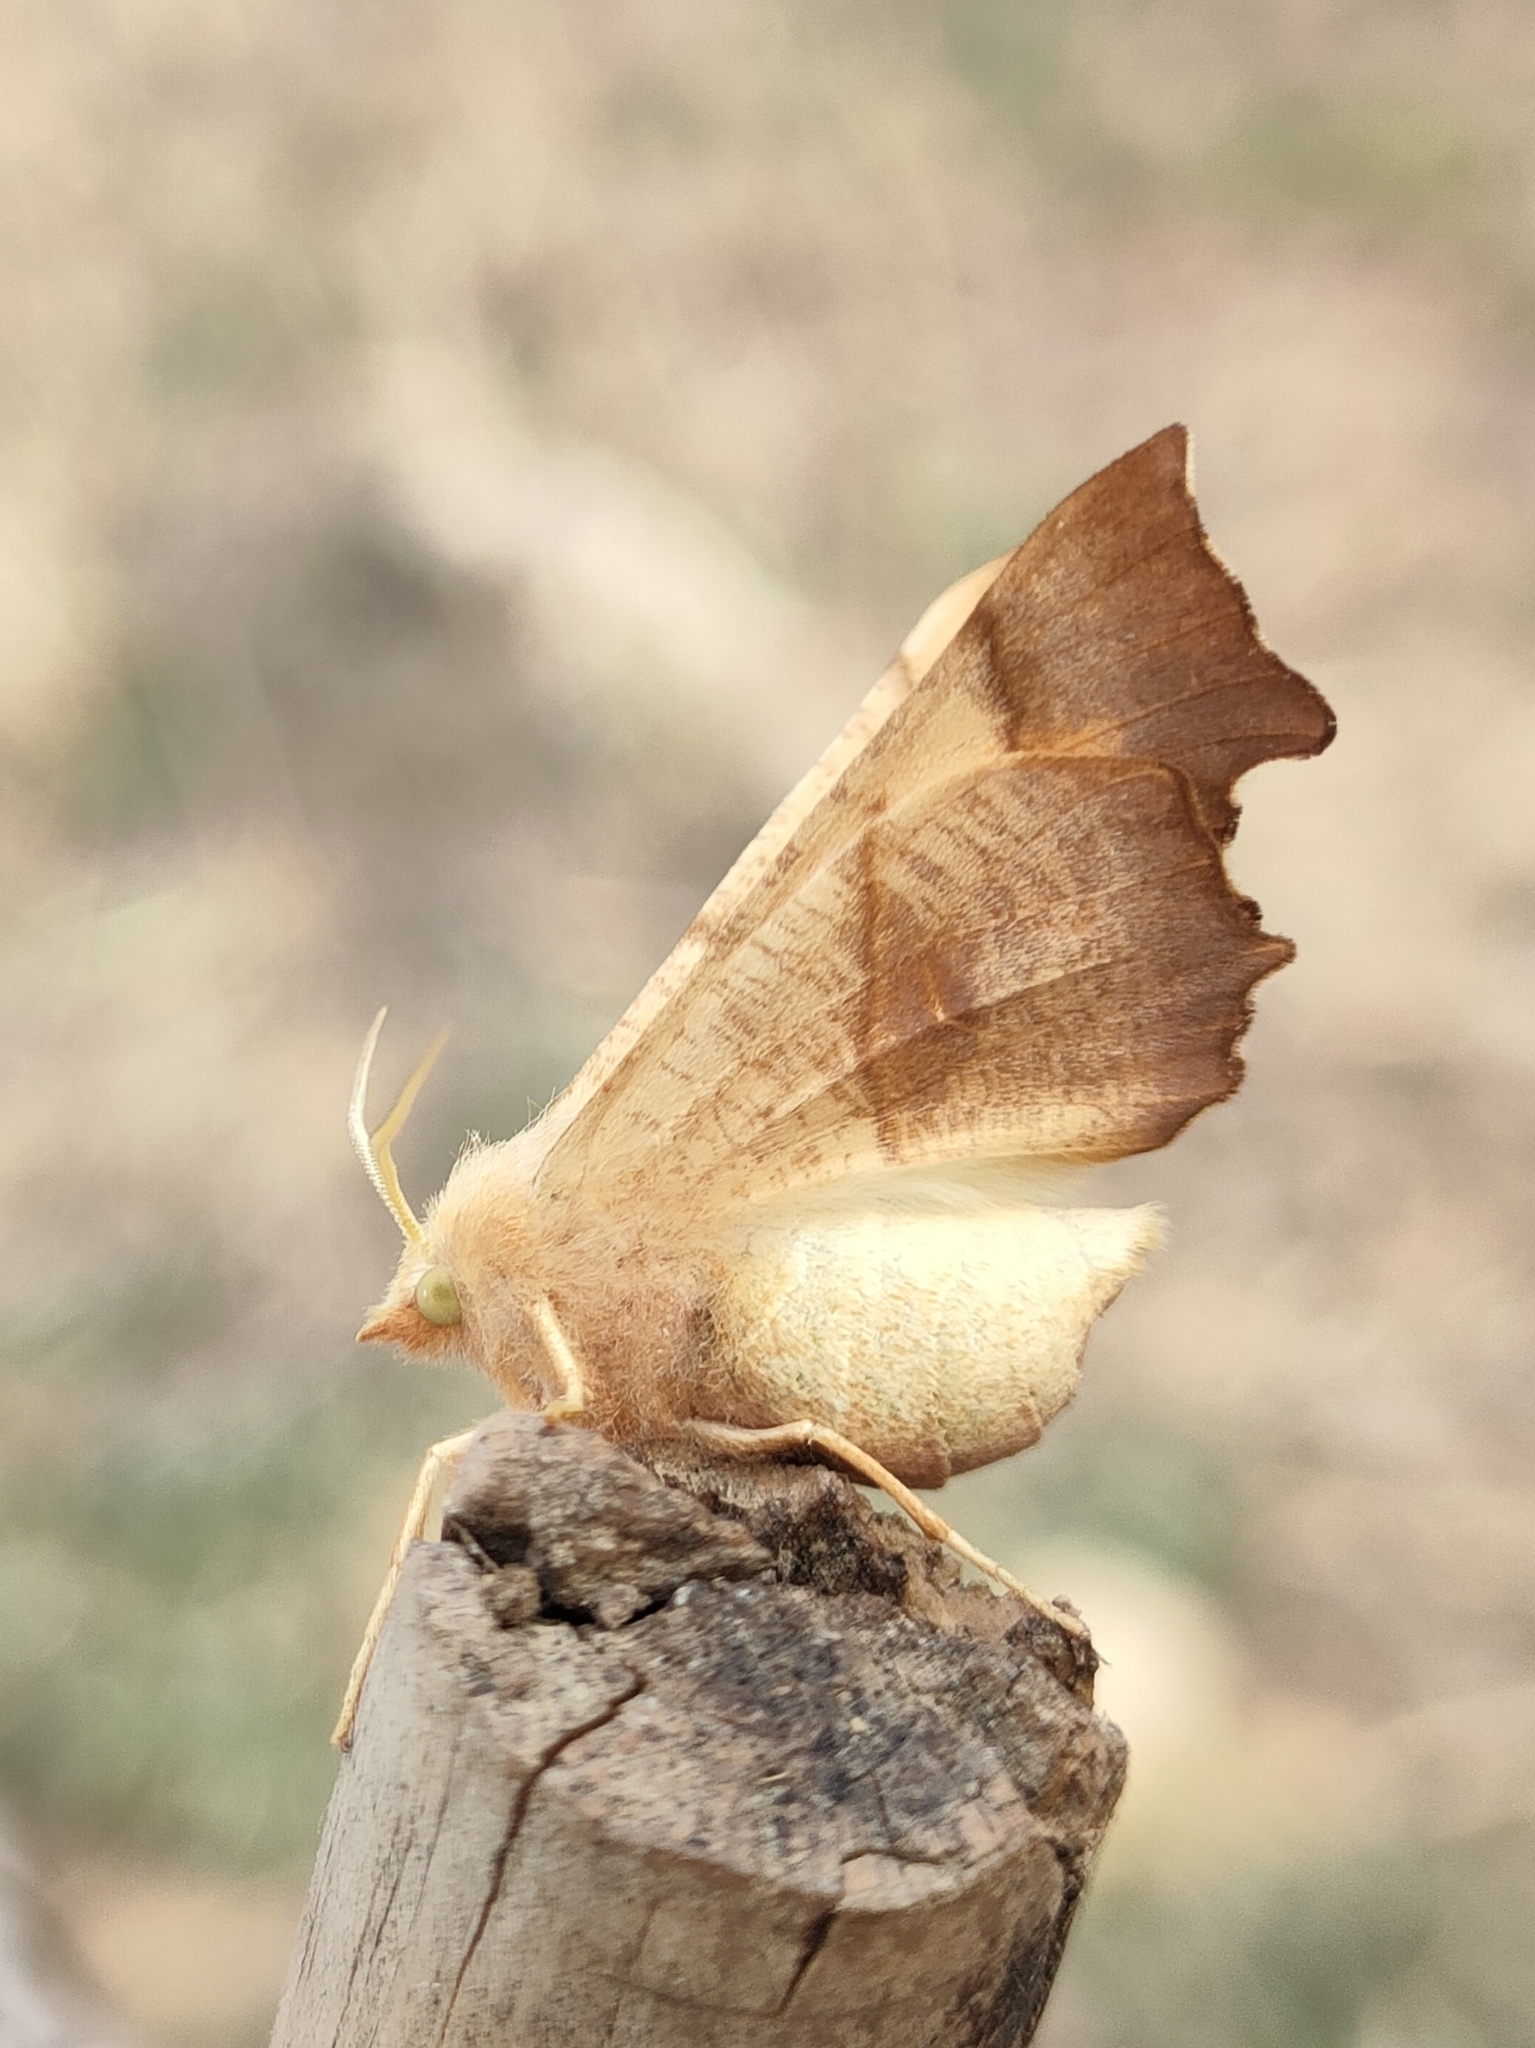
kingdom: Animalia
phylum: Arthropoda
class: Insecta
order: Lepidoptera
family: Geometridae
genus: Ennomos
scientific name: Ennomos fuscantaria
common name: Dusky thorn
